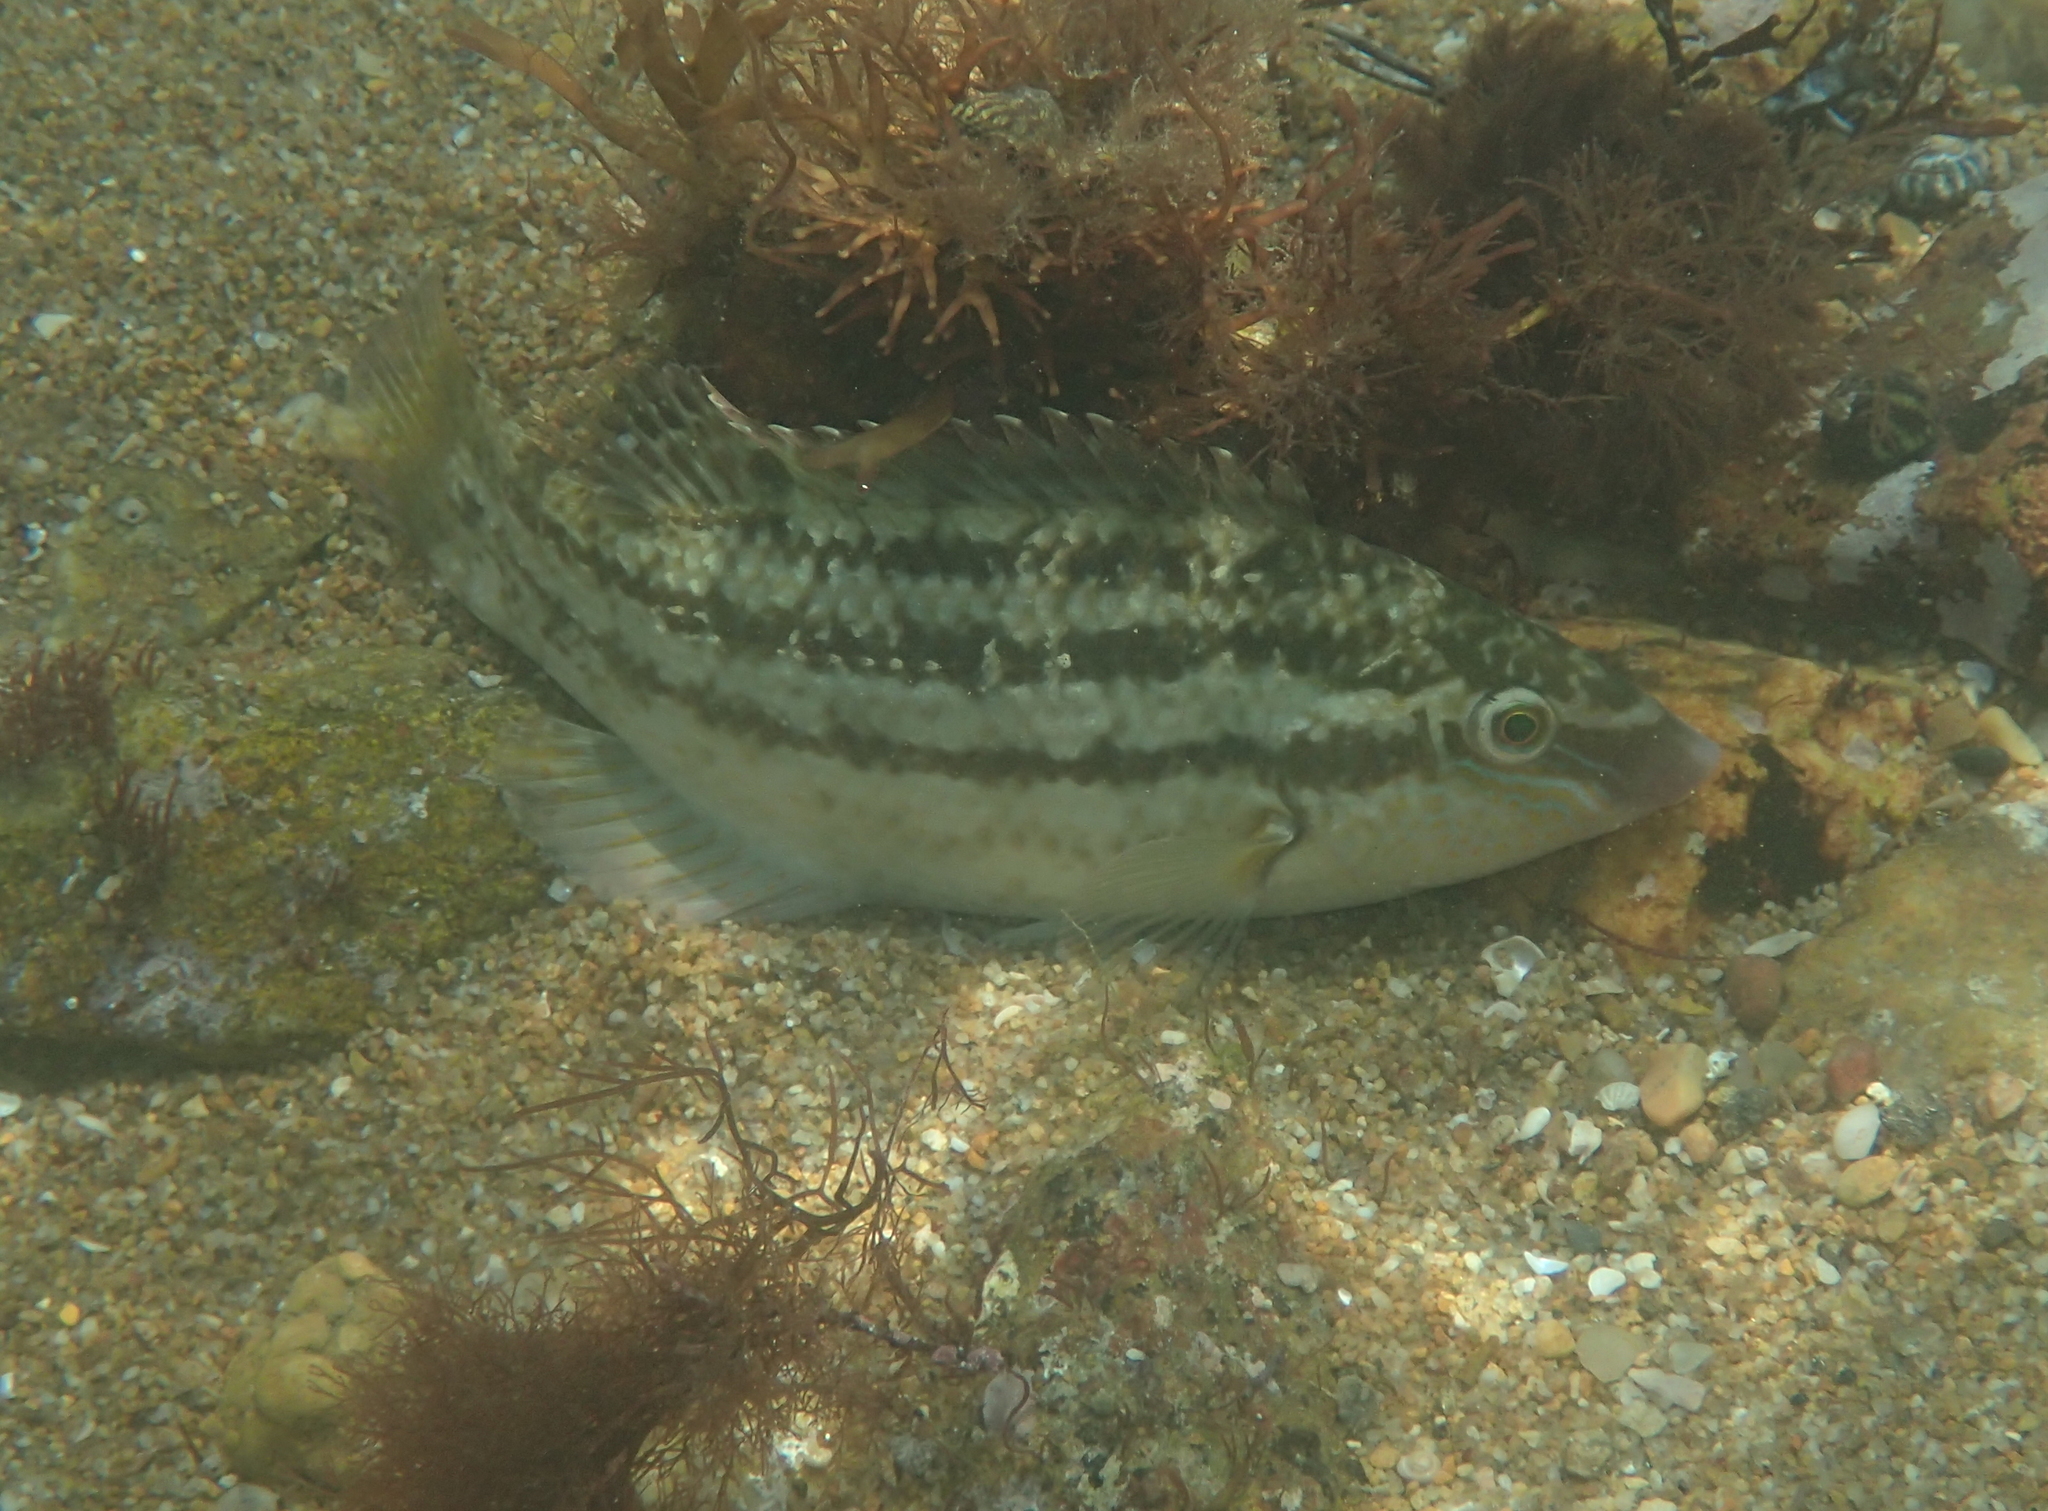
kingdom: Animalia
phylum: Chordata
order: Perciformes
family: Labridae
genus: Symphodus
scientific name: Symphodus bailloni
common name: Baillon's wrasse
